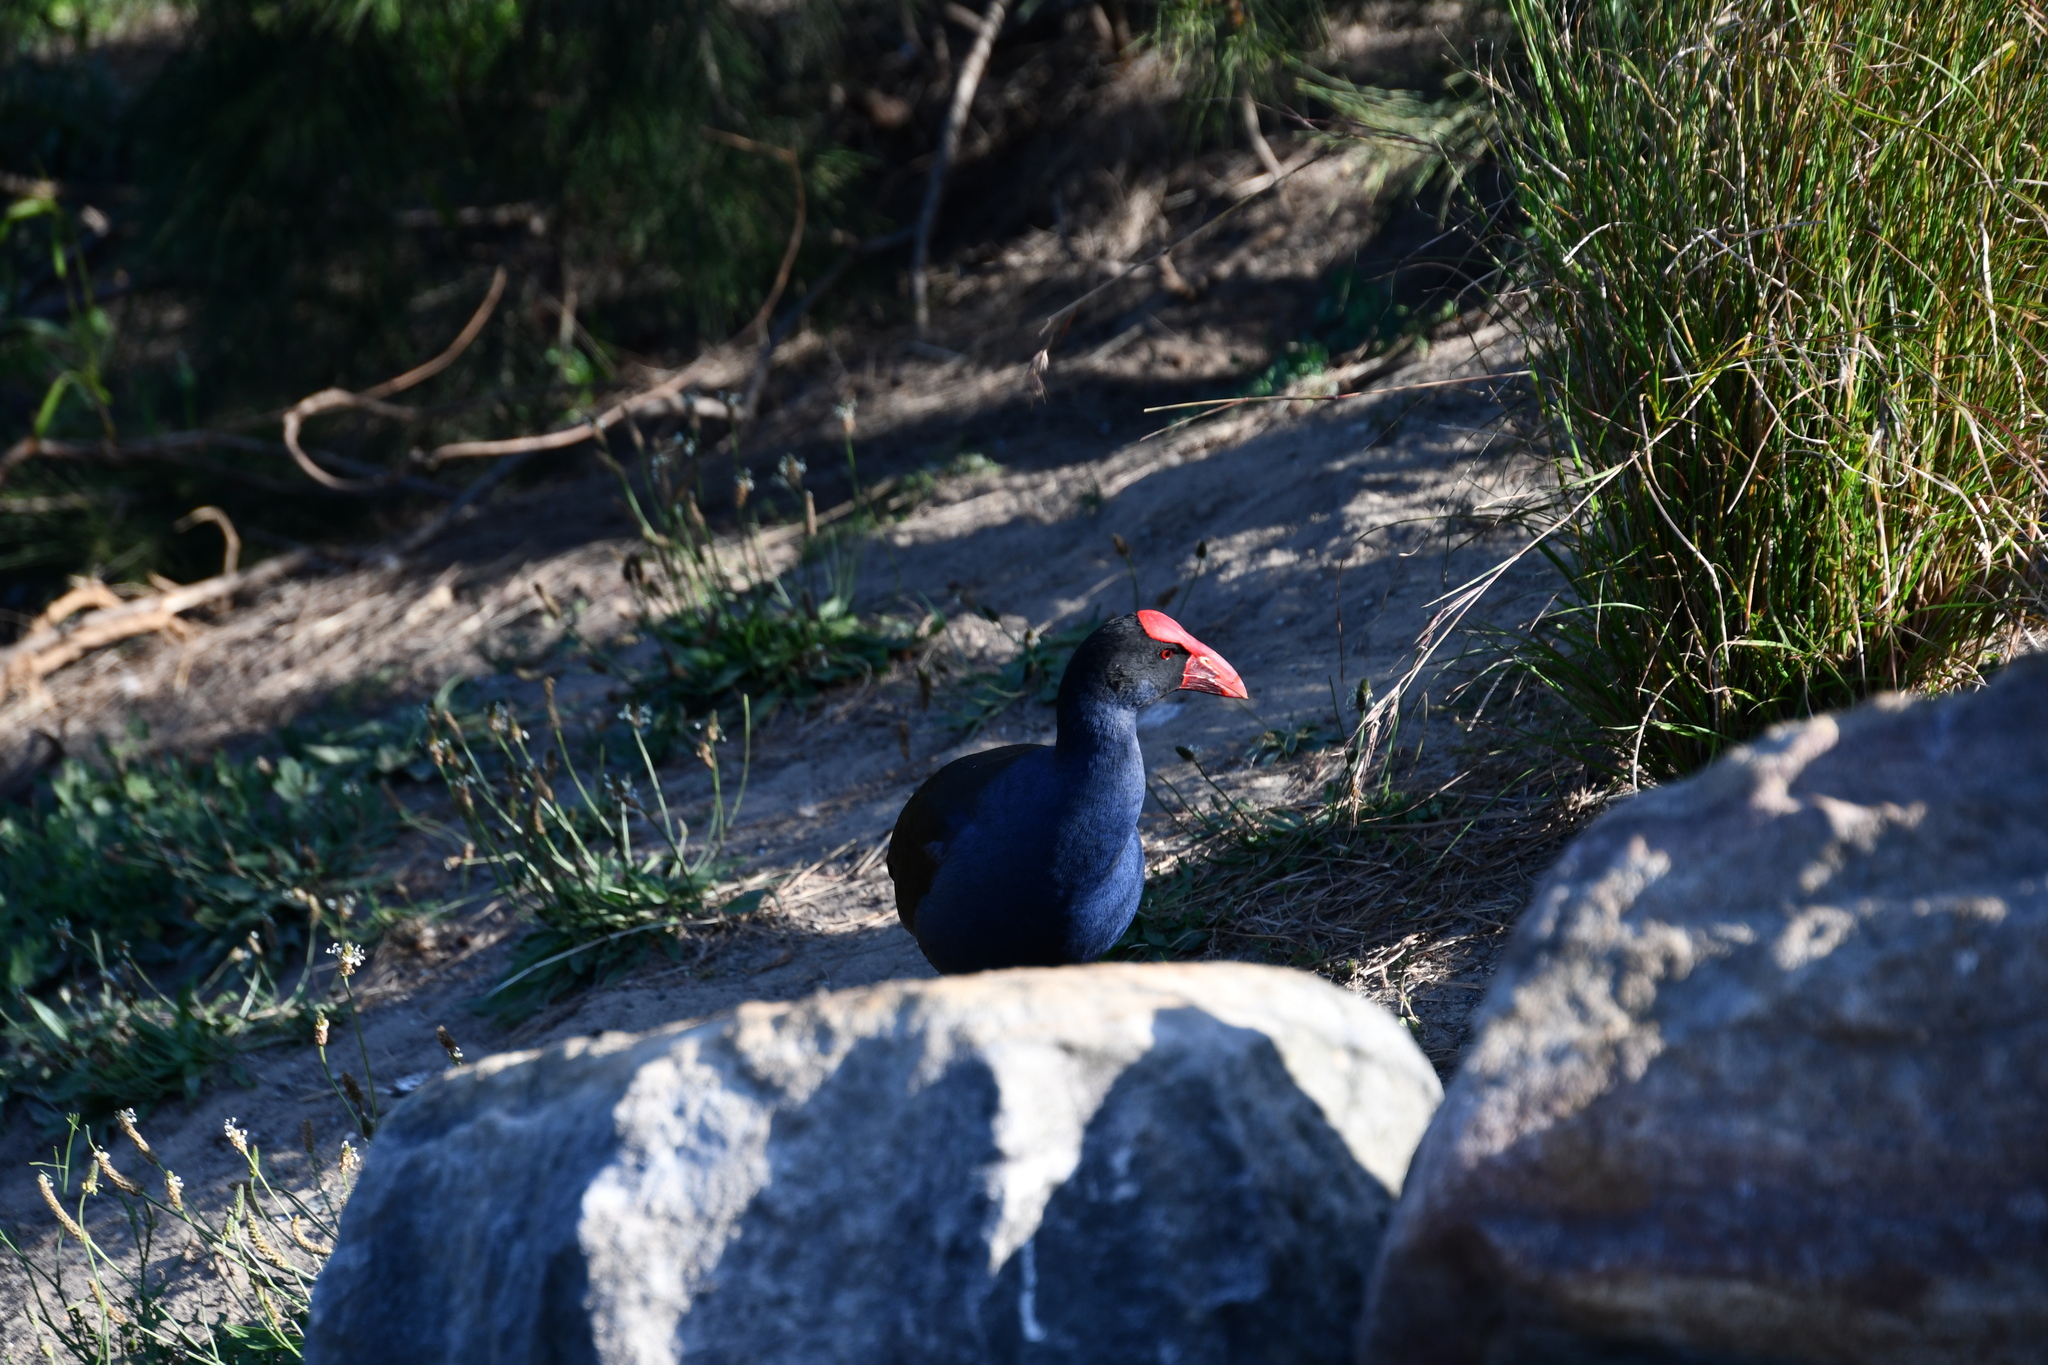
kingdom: Animalia
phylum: Chordata
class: Aves
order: Gruiformes
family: Rallidae
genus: Porphyrio
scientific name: Porphyrio melanotus
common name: Australasian swamphen
